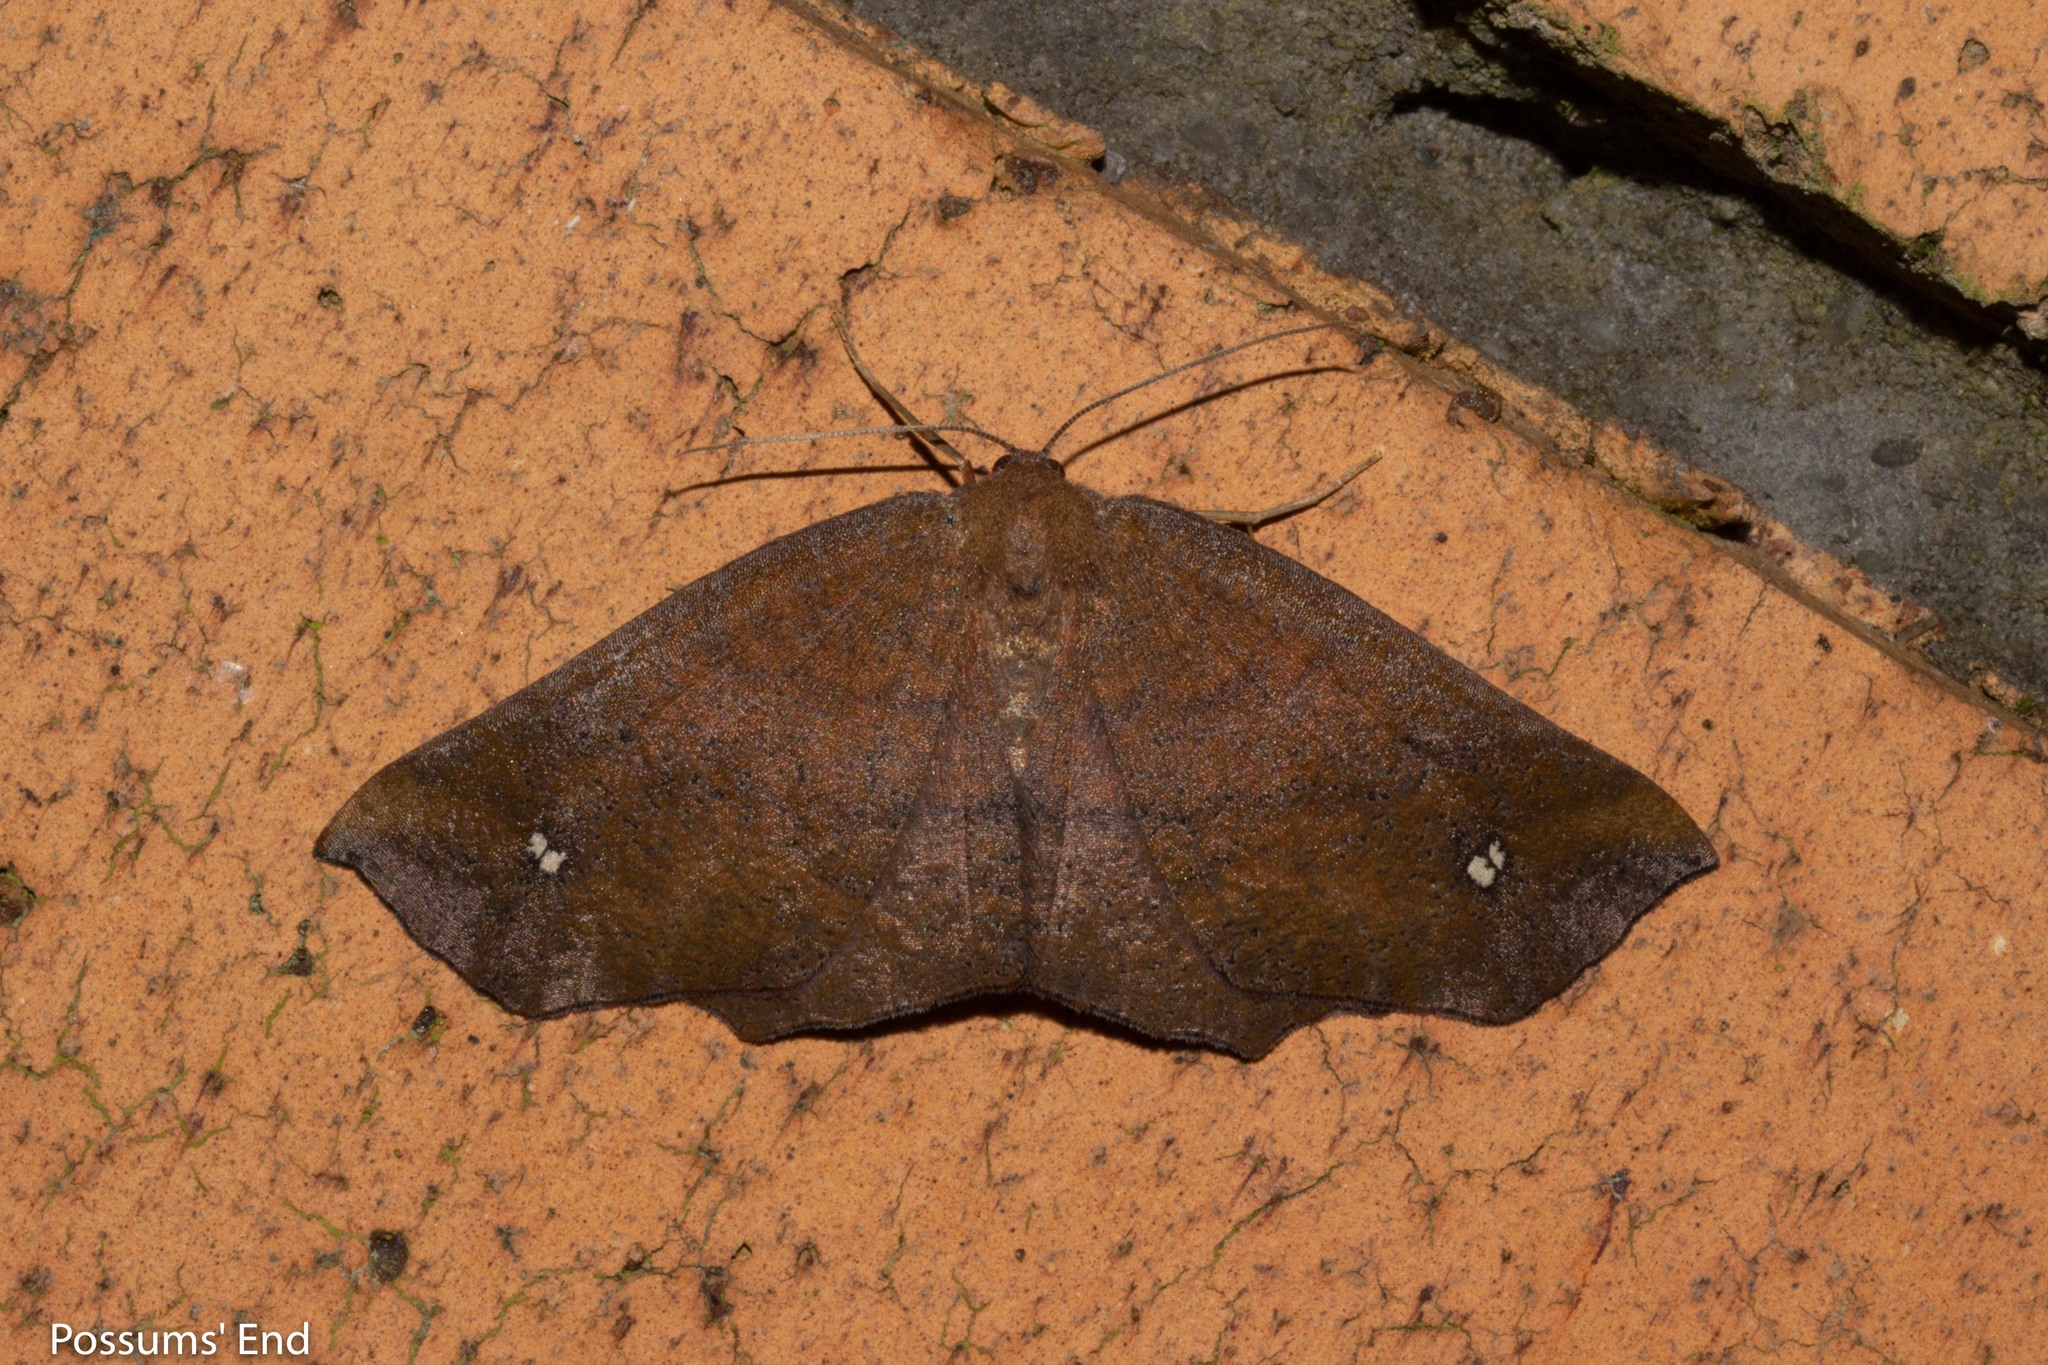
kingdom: Animalia
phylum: Arthropoda
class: Insecta
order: Lepidoptera
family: Geometridae
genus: Xyridacma
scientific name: Xyridacma ustaria
